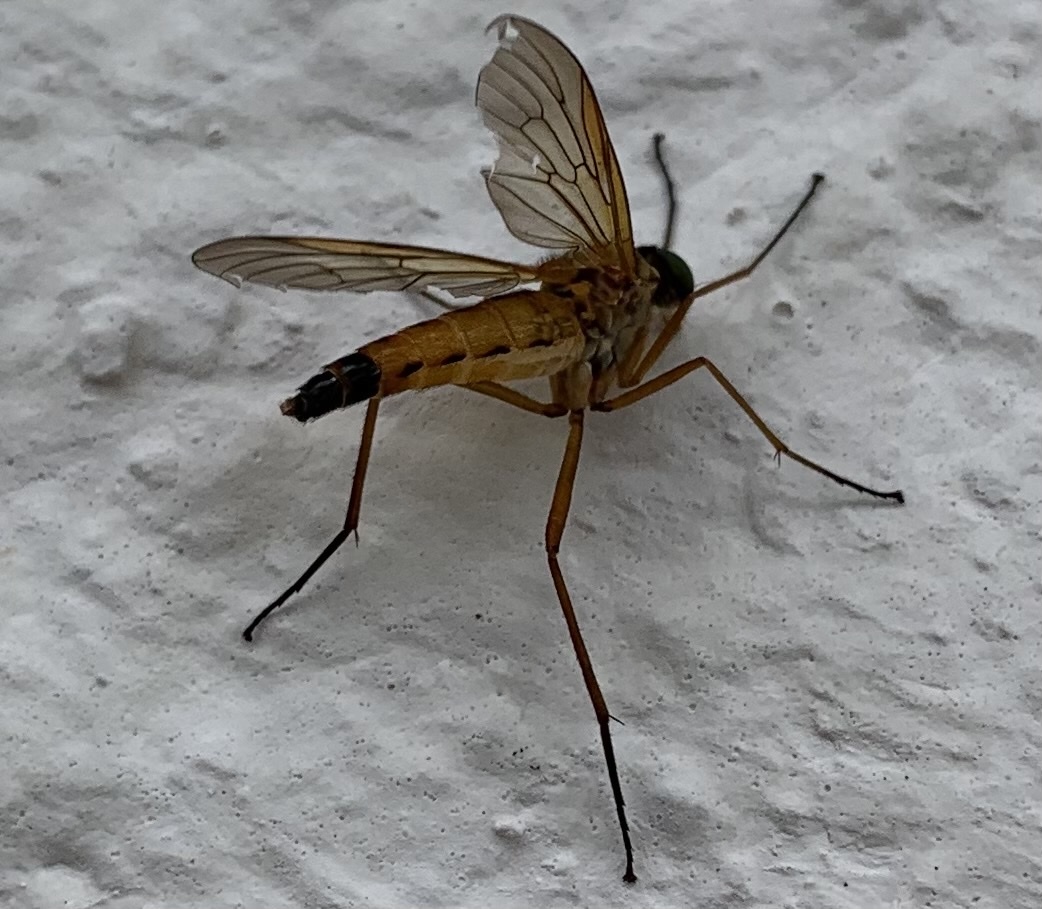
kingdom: Animalia
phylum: Arthropoda
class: Insecta
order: Diptera
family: Rhagionidae
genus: Rhagio
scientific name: Rhagio tringaria
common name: Marsh snipefly
